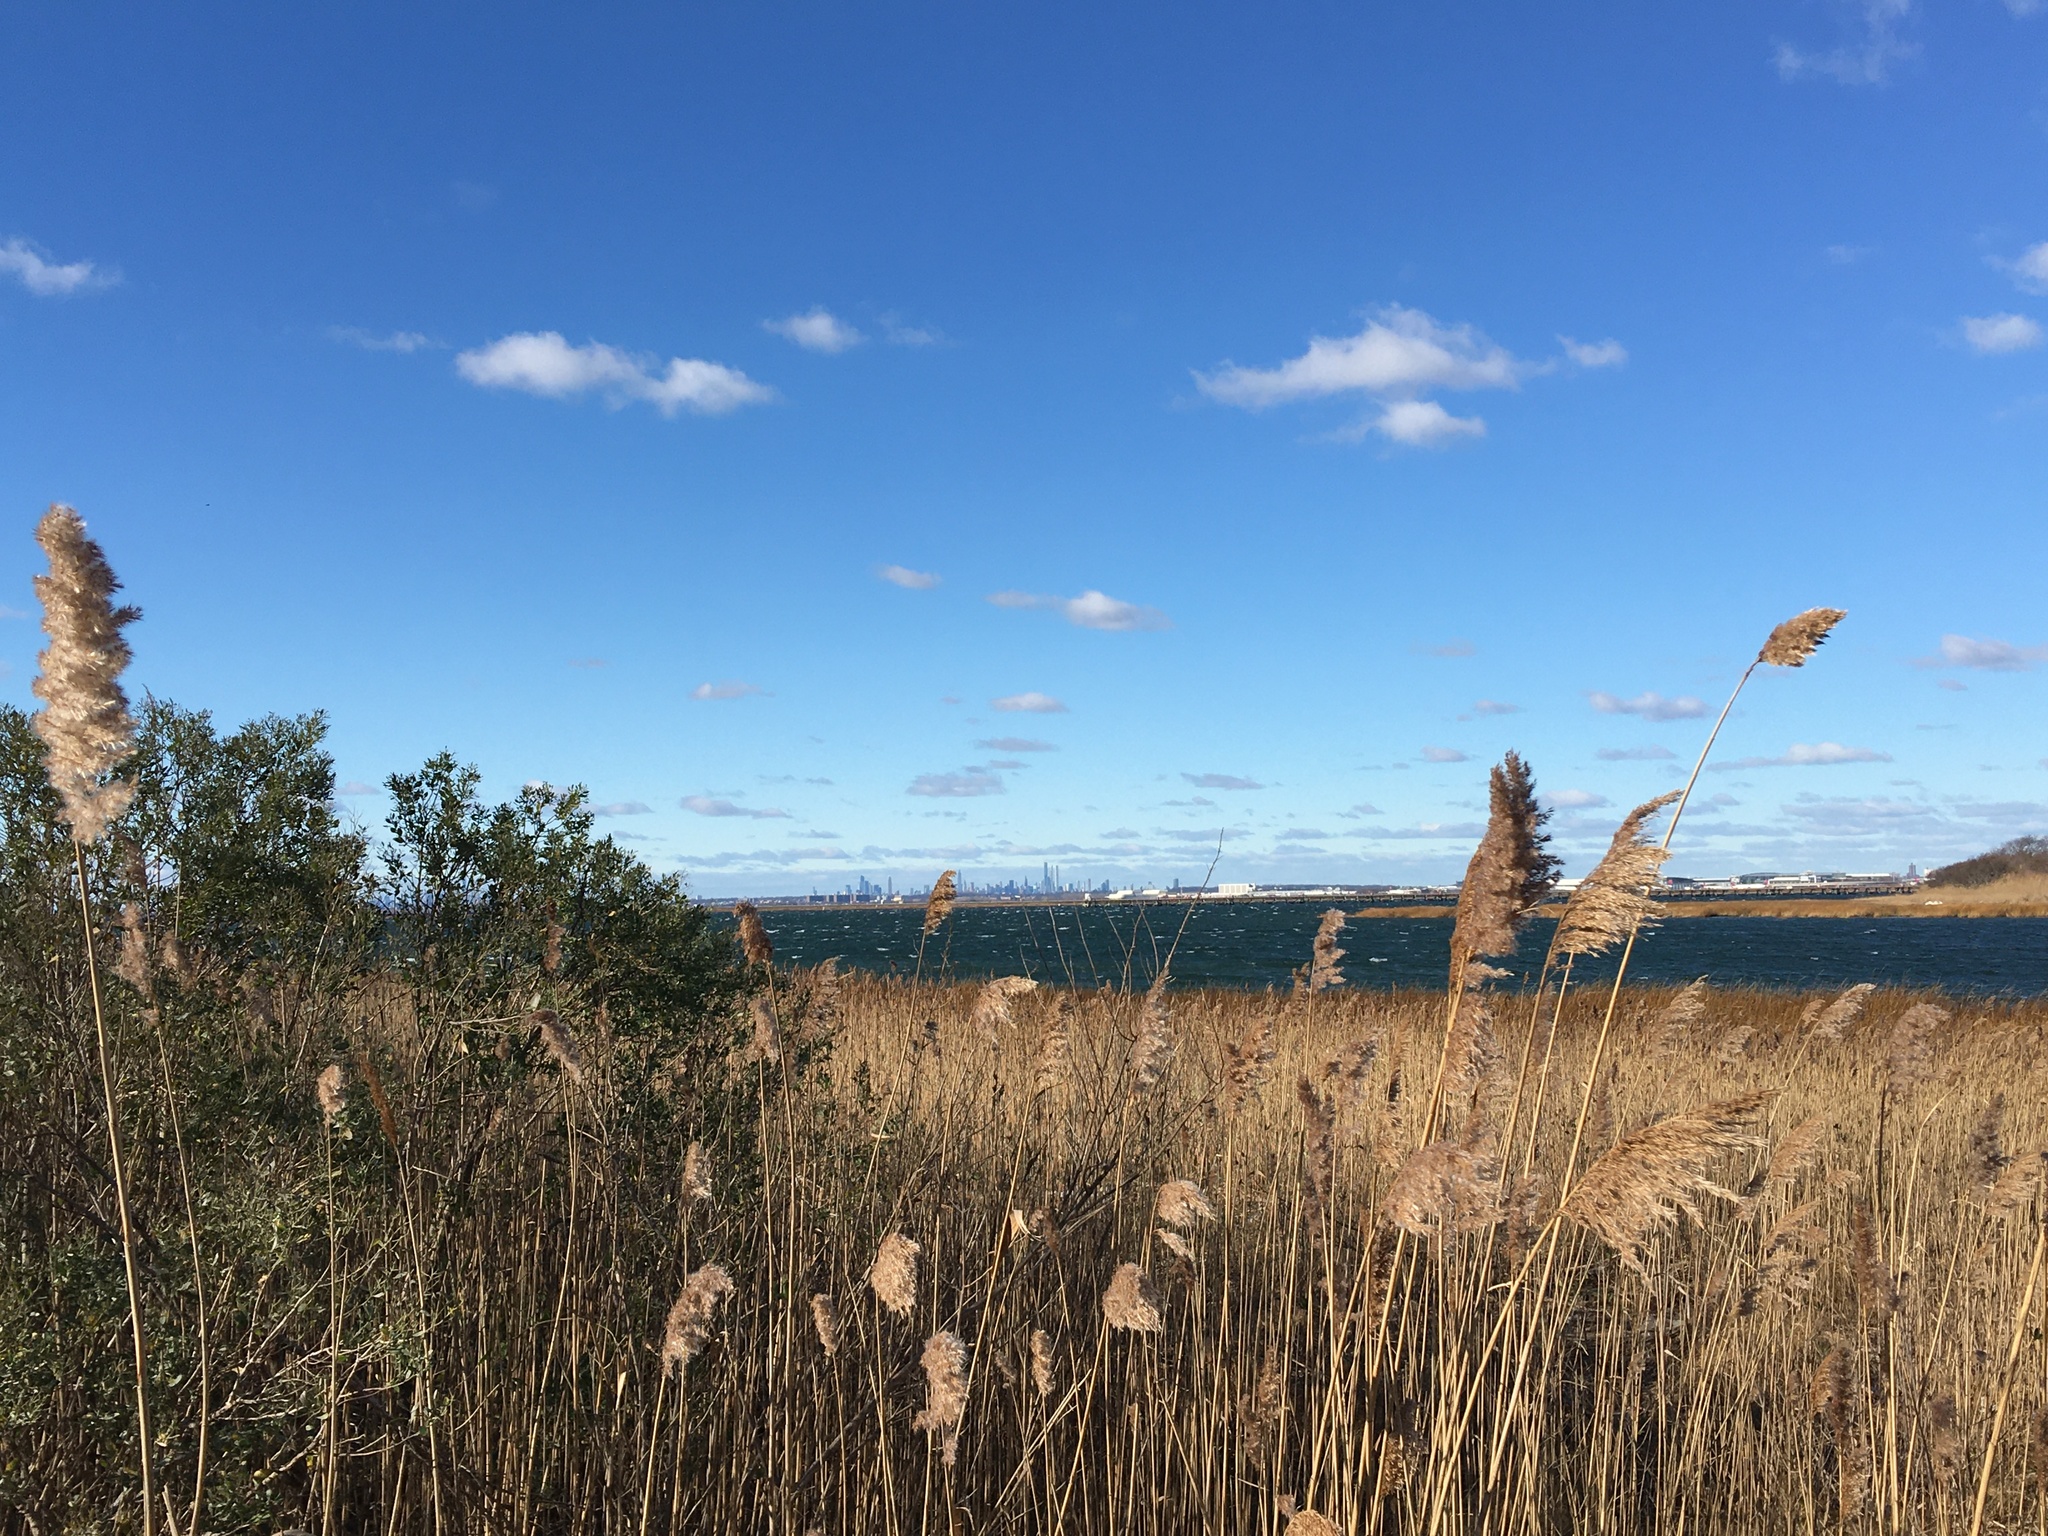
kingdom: Plantae
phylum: Tracheophyta
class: Liliopsida
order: Poales
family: Poaceae
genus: Phragmites
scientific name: Phragmites australis
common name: Common reed
